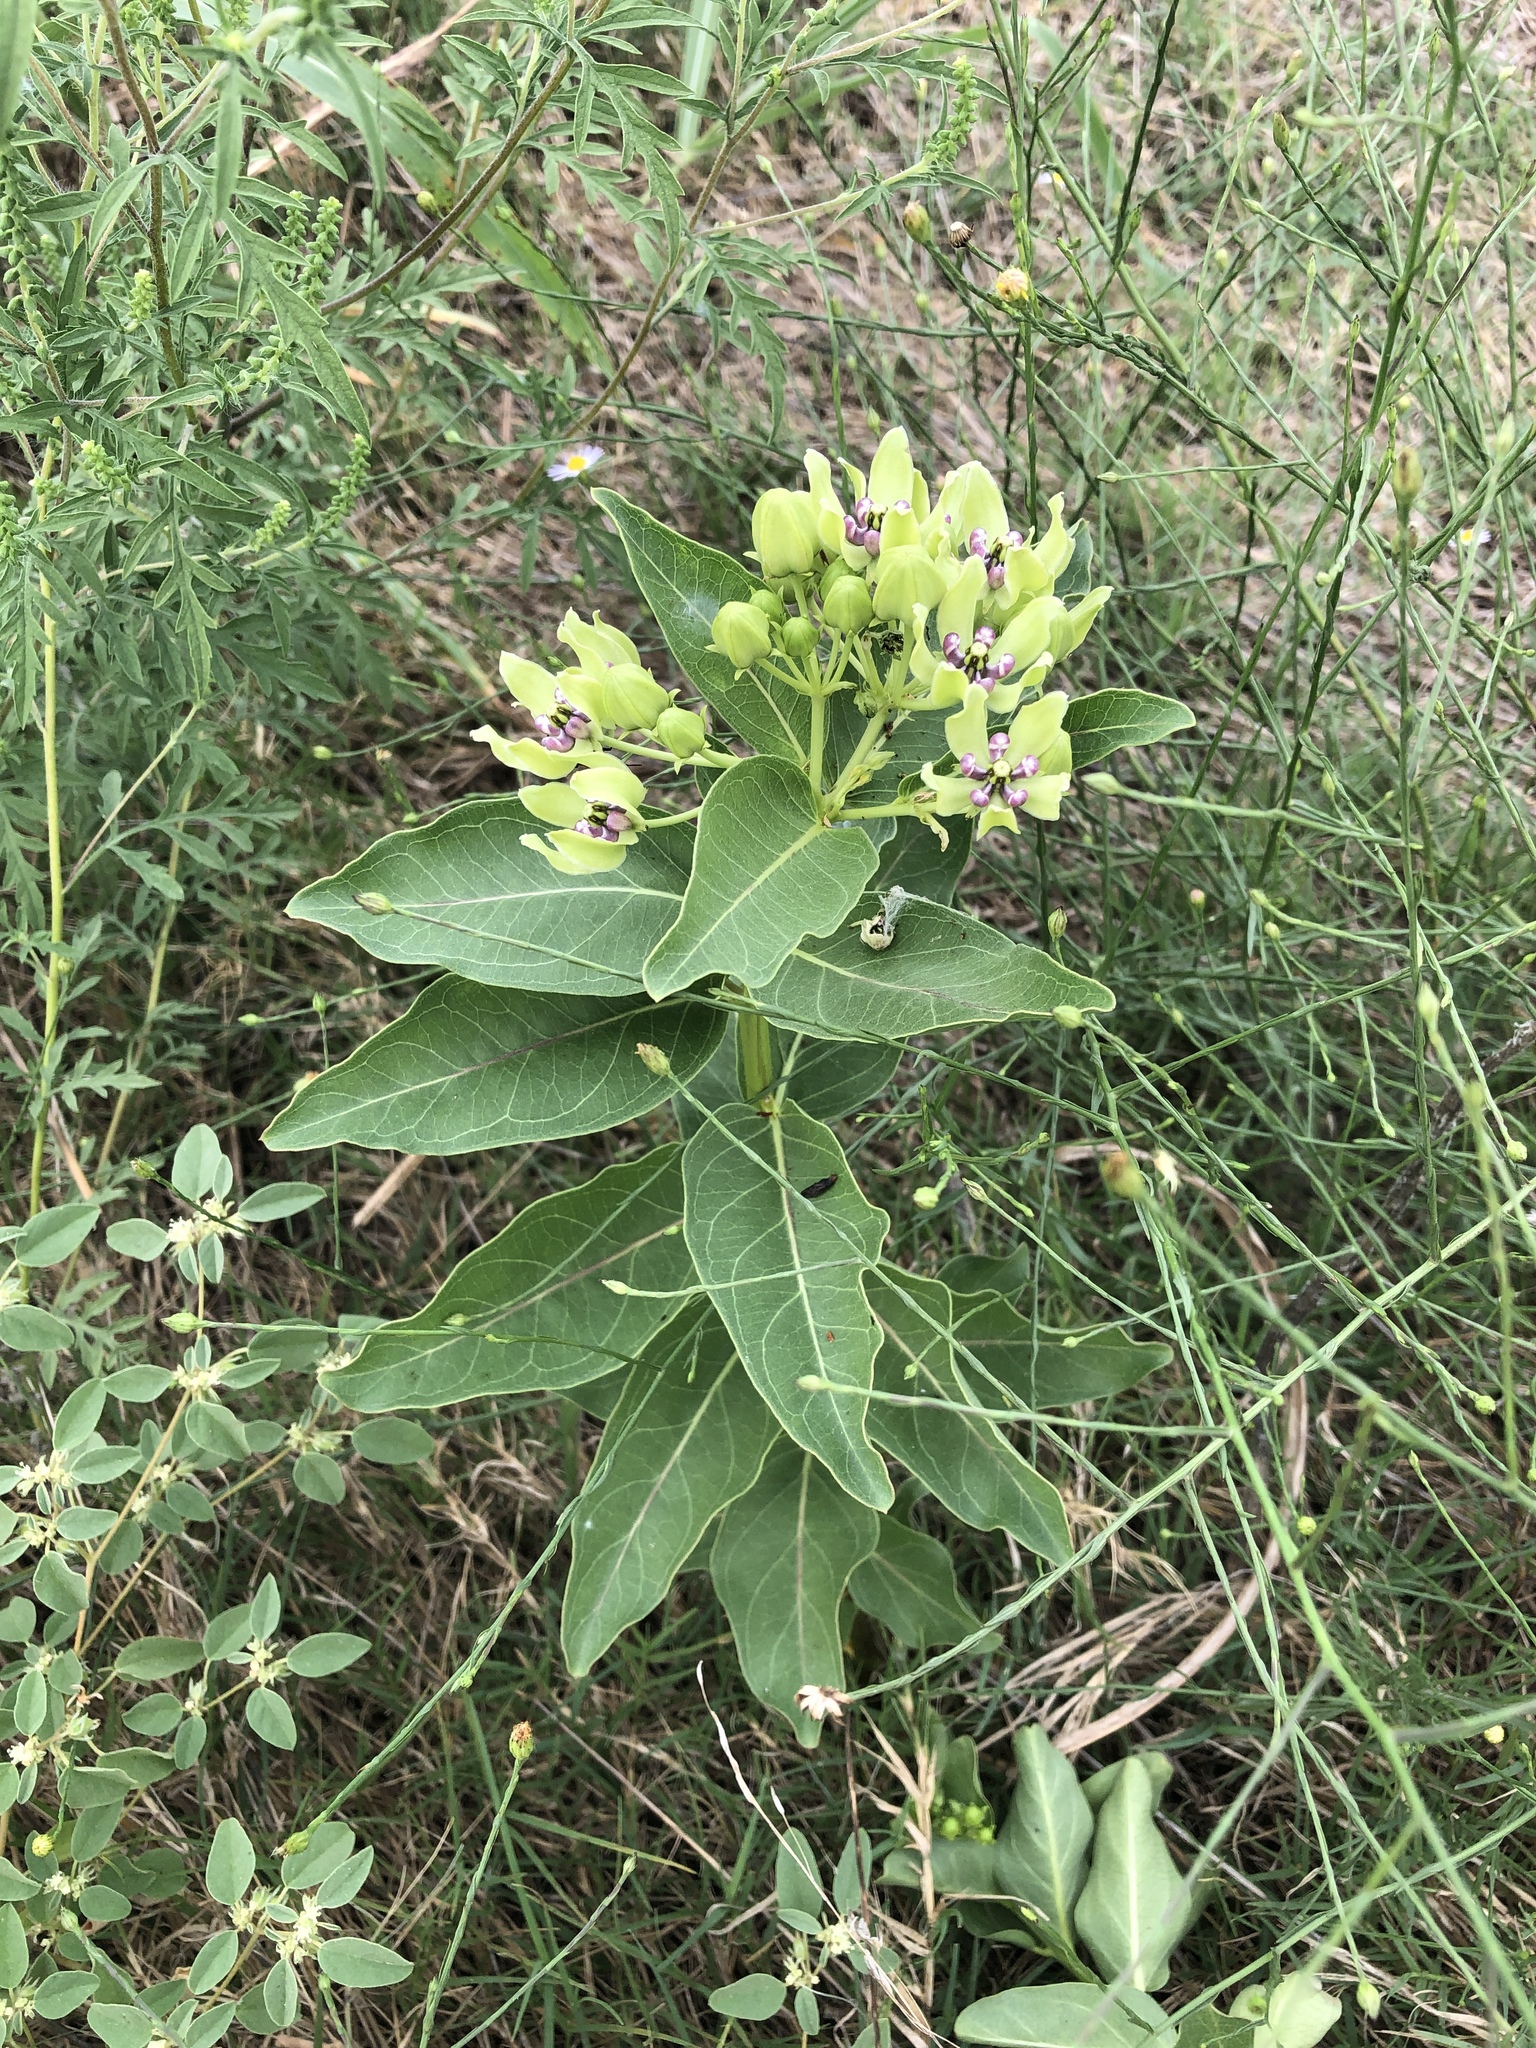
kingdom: Plantae
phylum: Tracheophyta
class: Magnoliopsida
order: Gentianales
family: Apocynaceae
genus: Asclepias
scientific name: Asclepias viridis
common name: Antelope-horns
